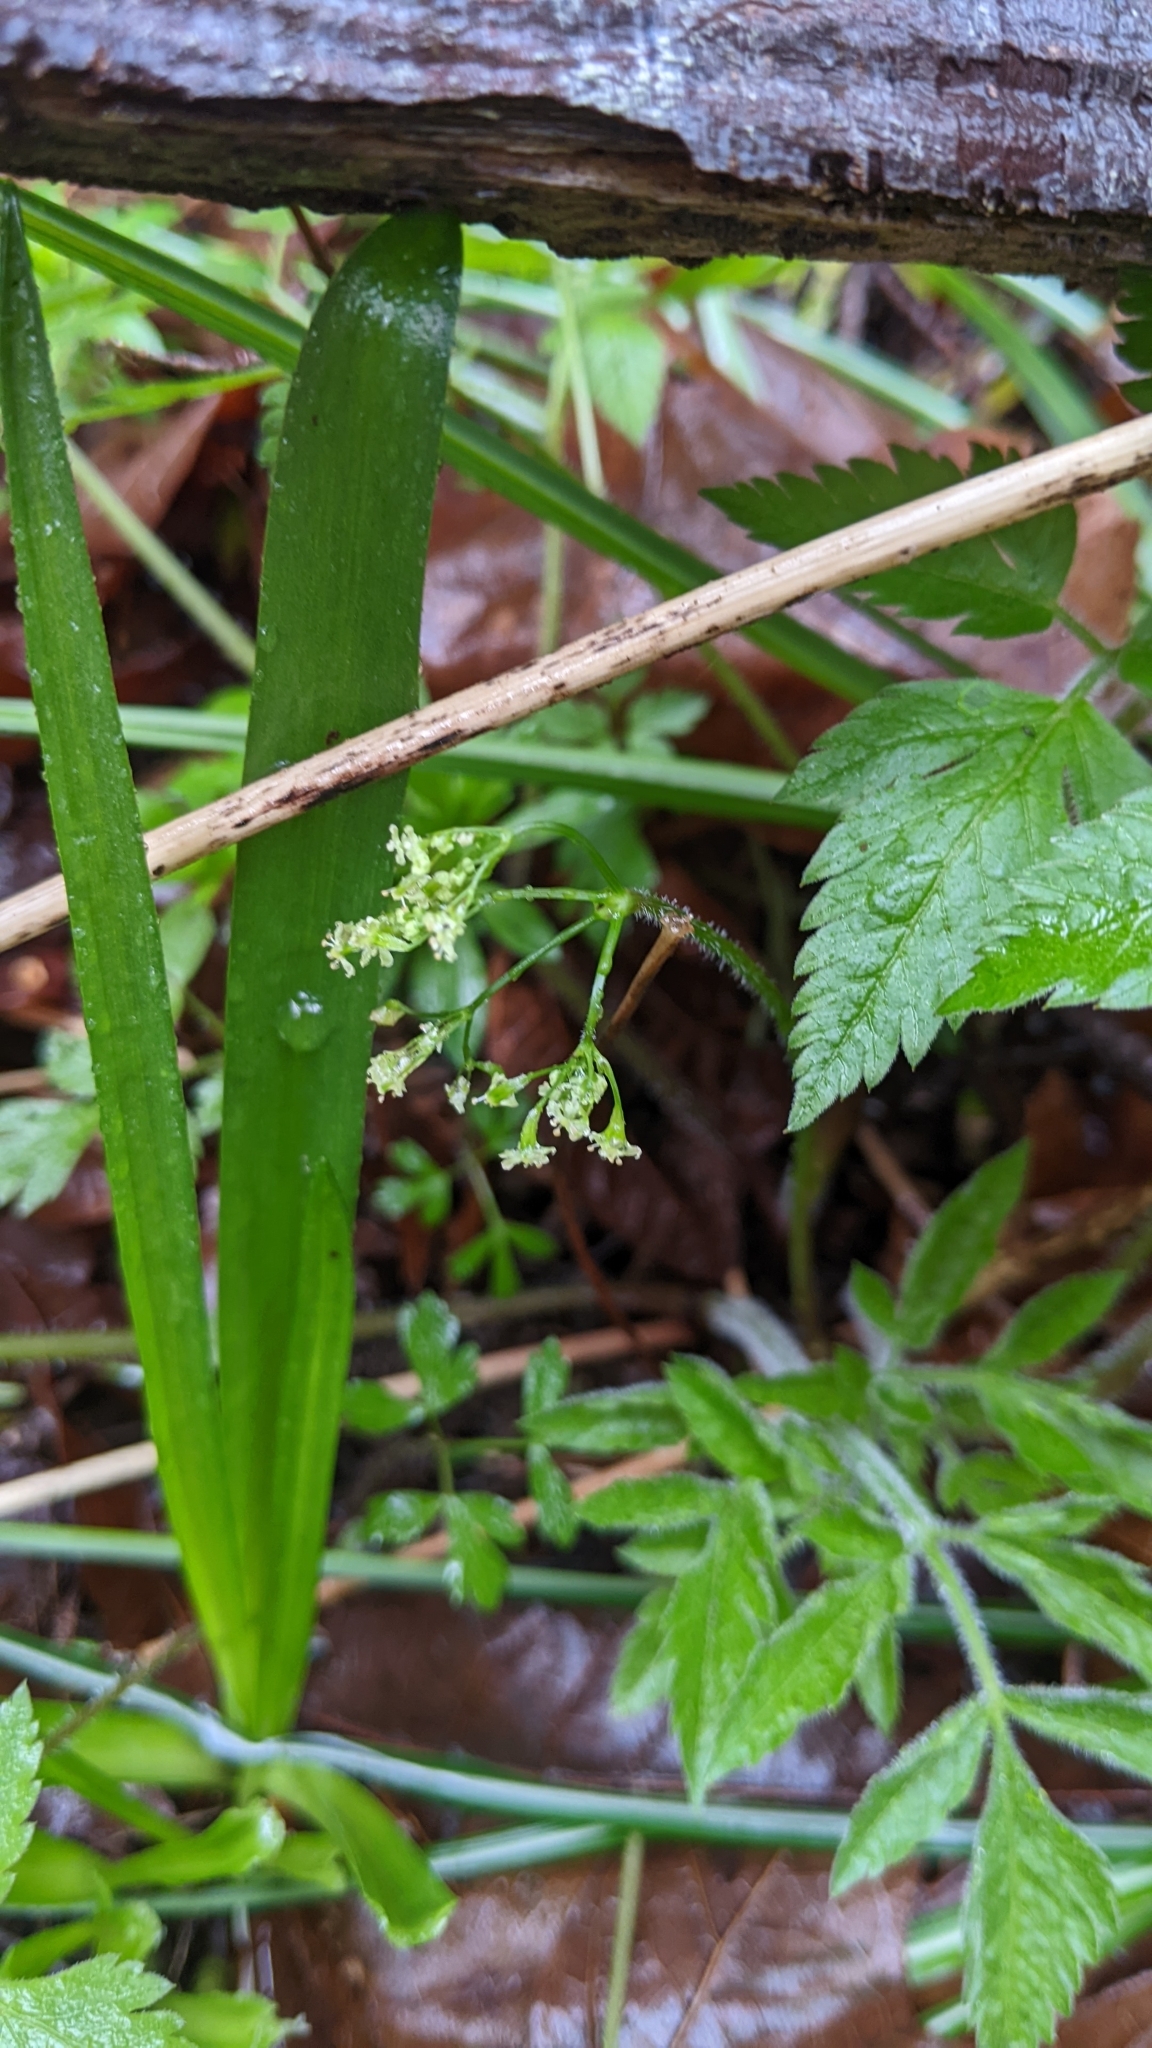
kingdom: Plantae
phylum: Tracheophyta
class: Magnoliopsida
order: Apiales
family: Apiaceae
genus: Osmorhiza
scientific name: Osmorhiza berteroi
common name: Mountain sweet cicely
